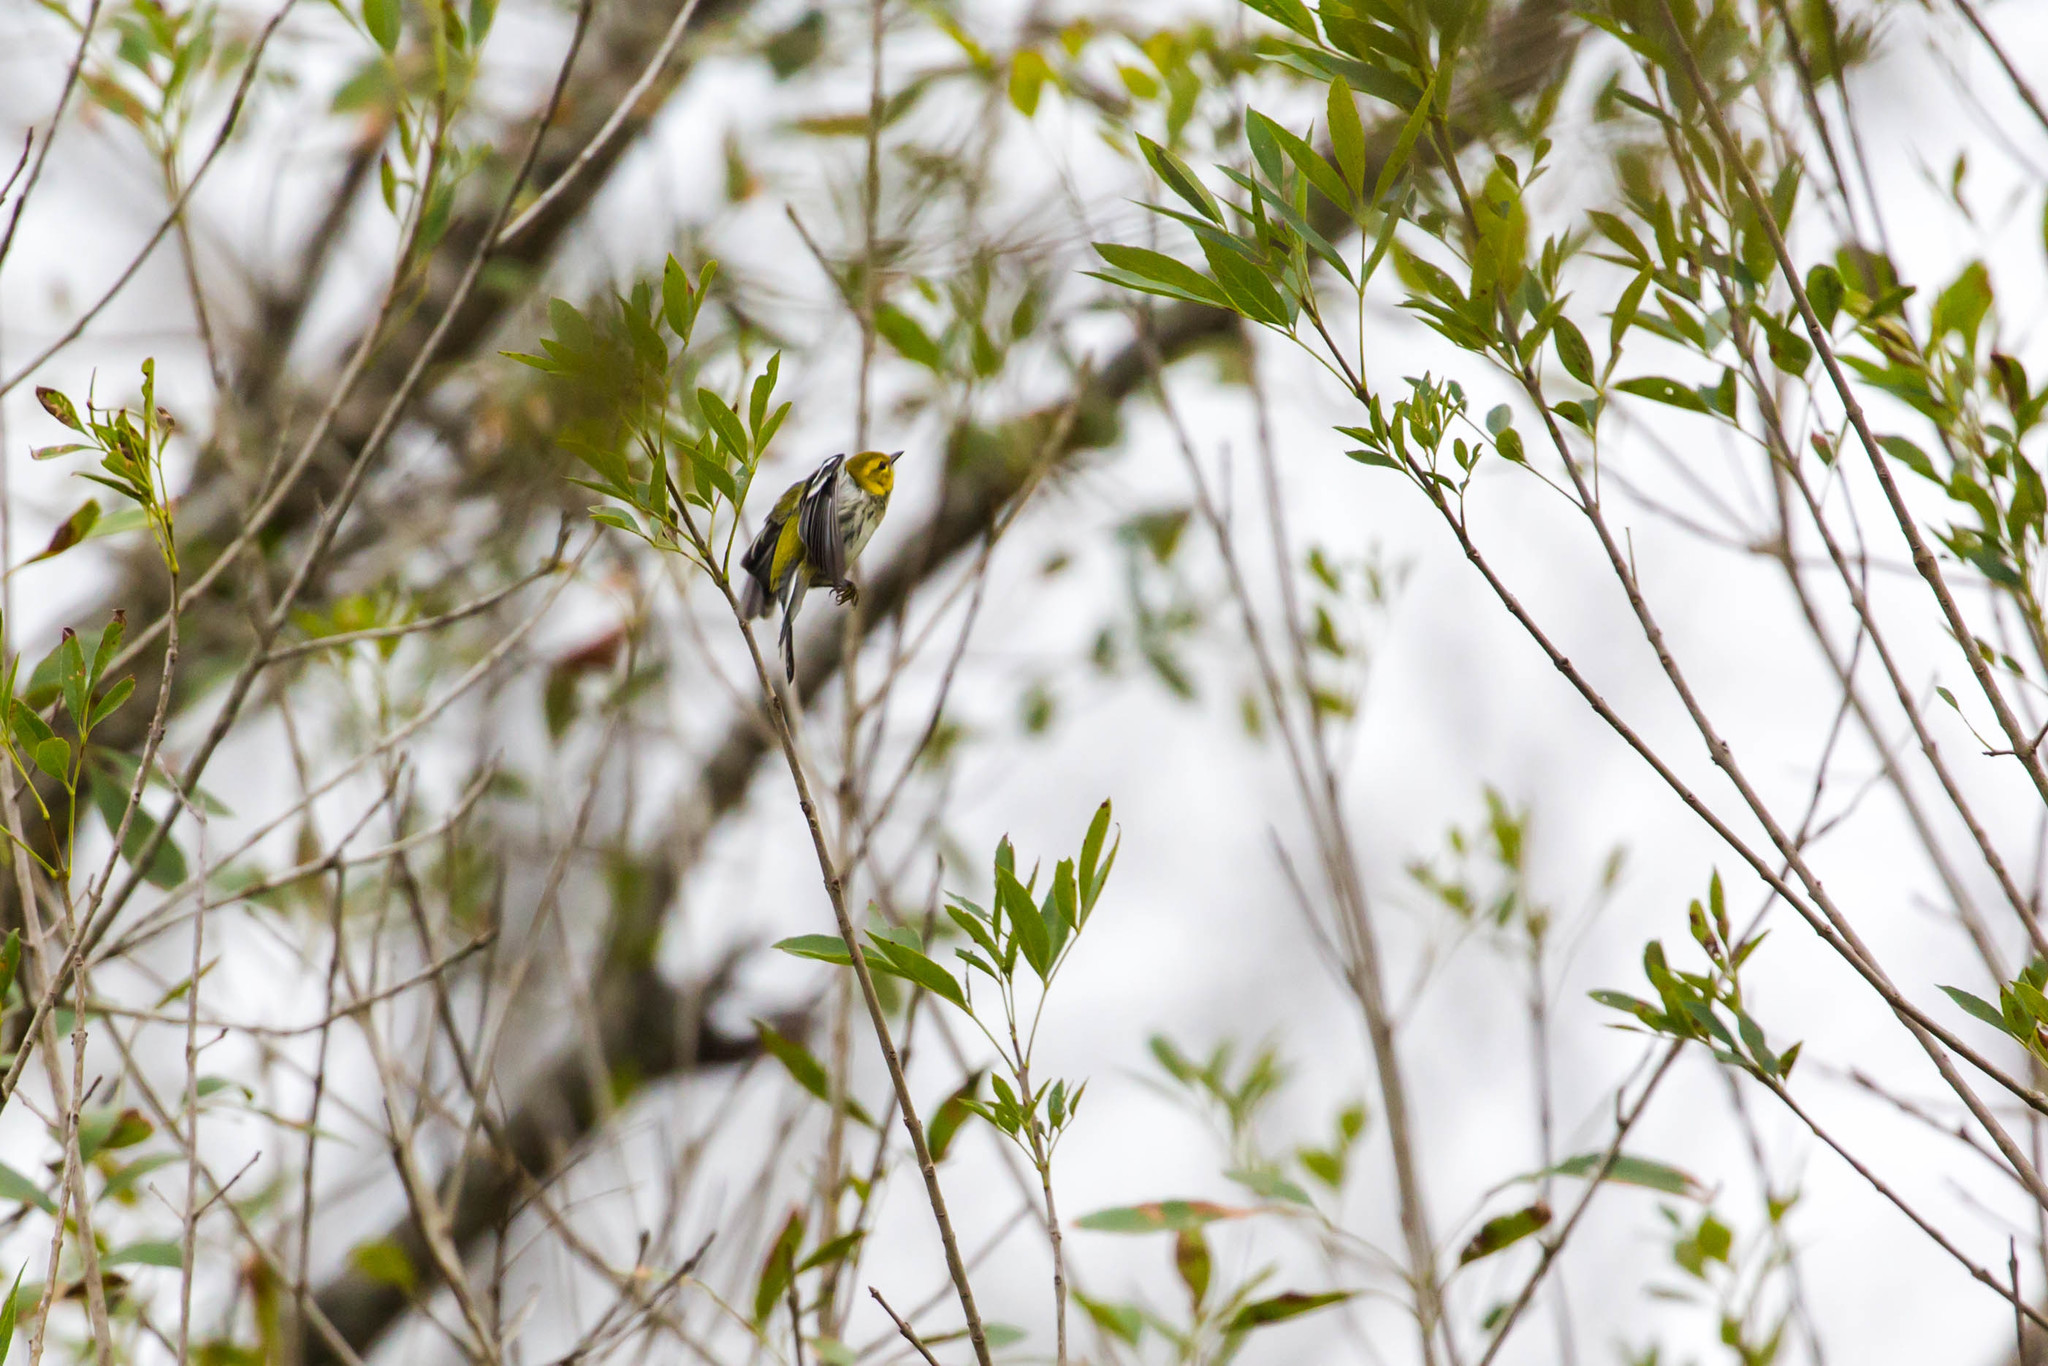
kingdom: Animalia
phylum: Chordata
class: Aves
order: Passeriformes
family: Parulidae
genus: Setophaga
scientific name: Setophaga virens
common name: Black-throated green warbler
